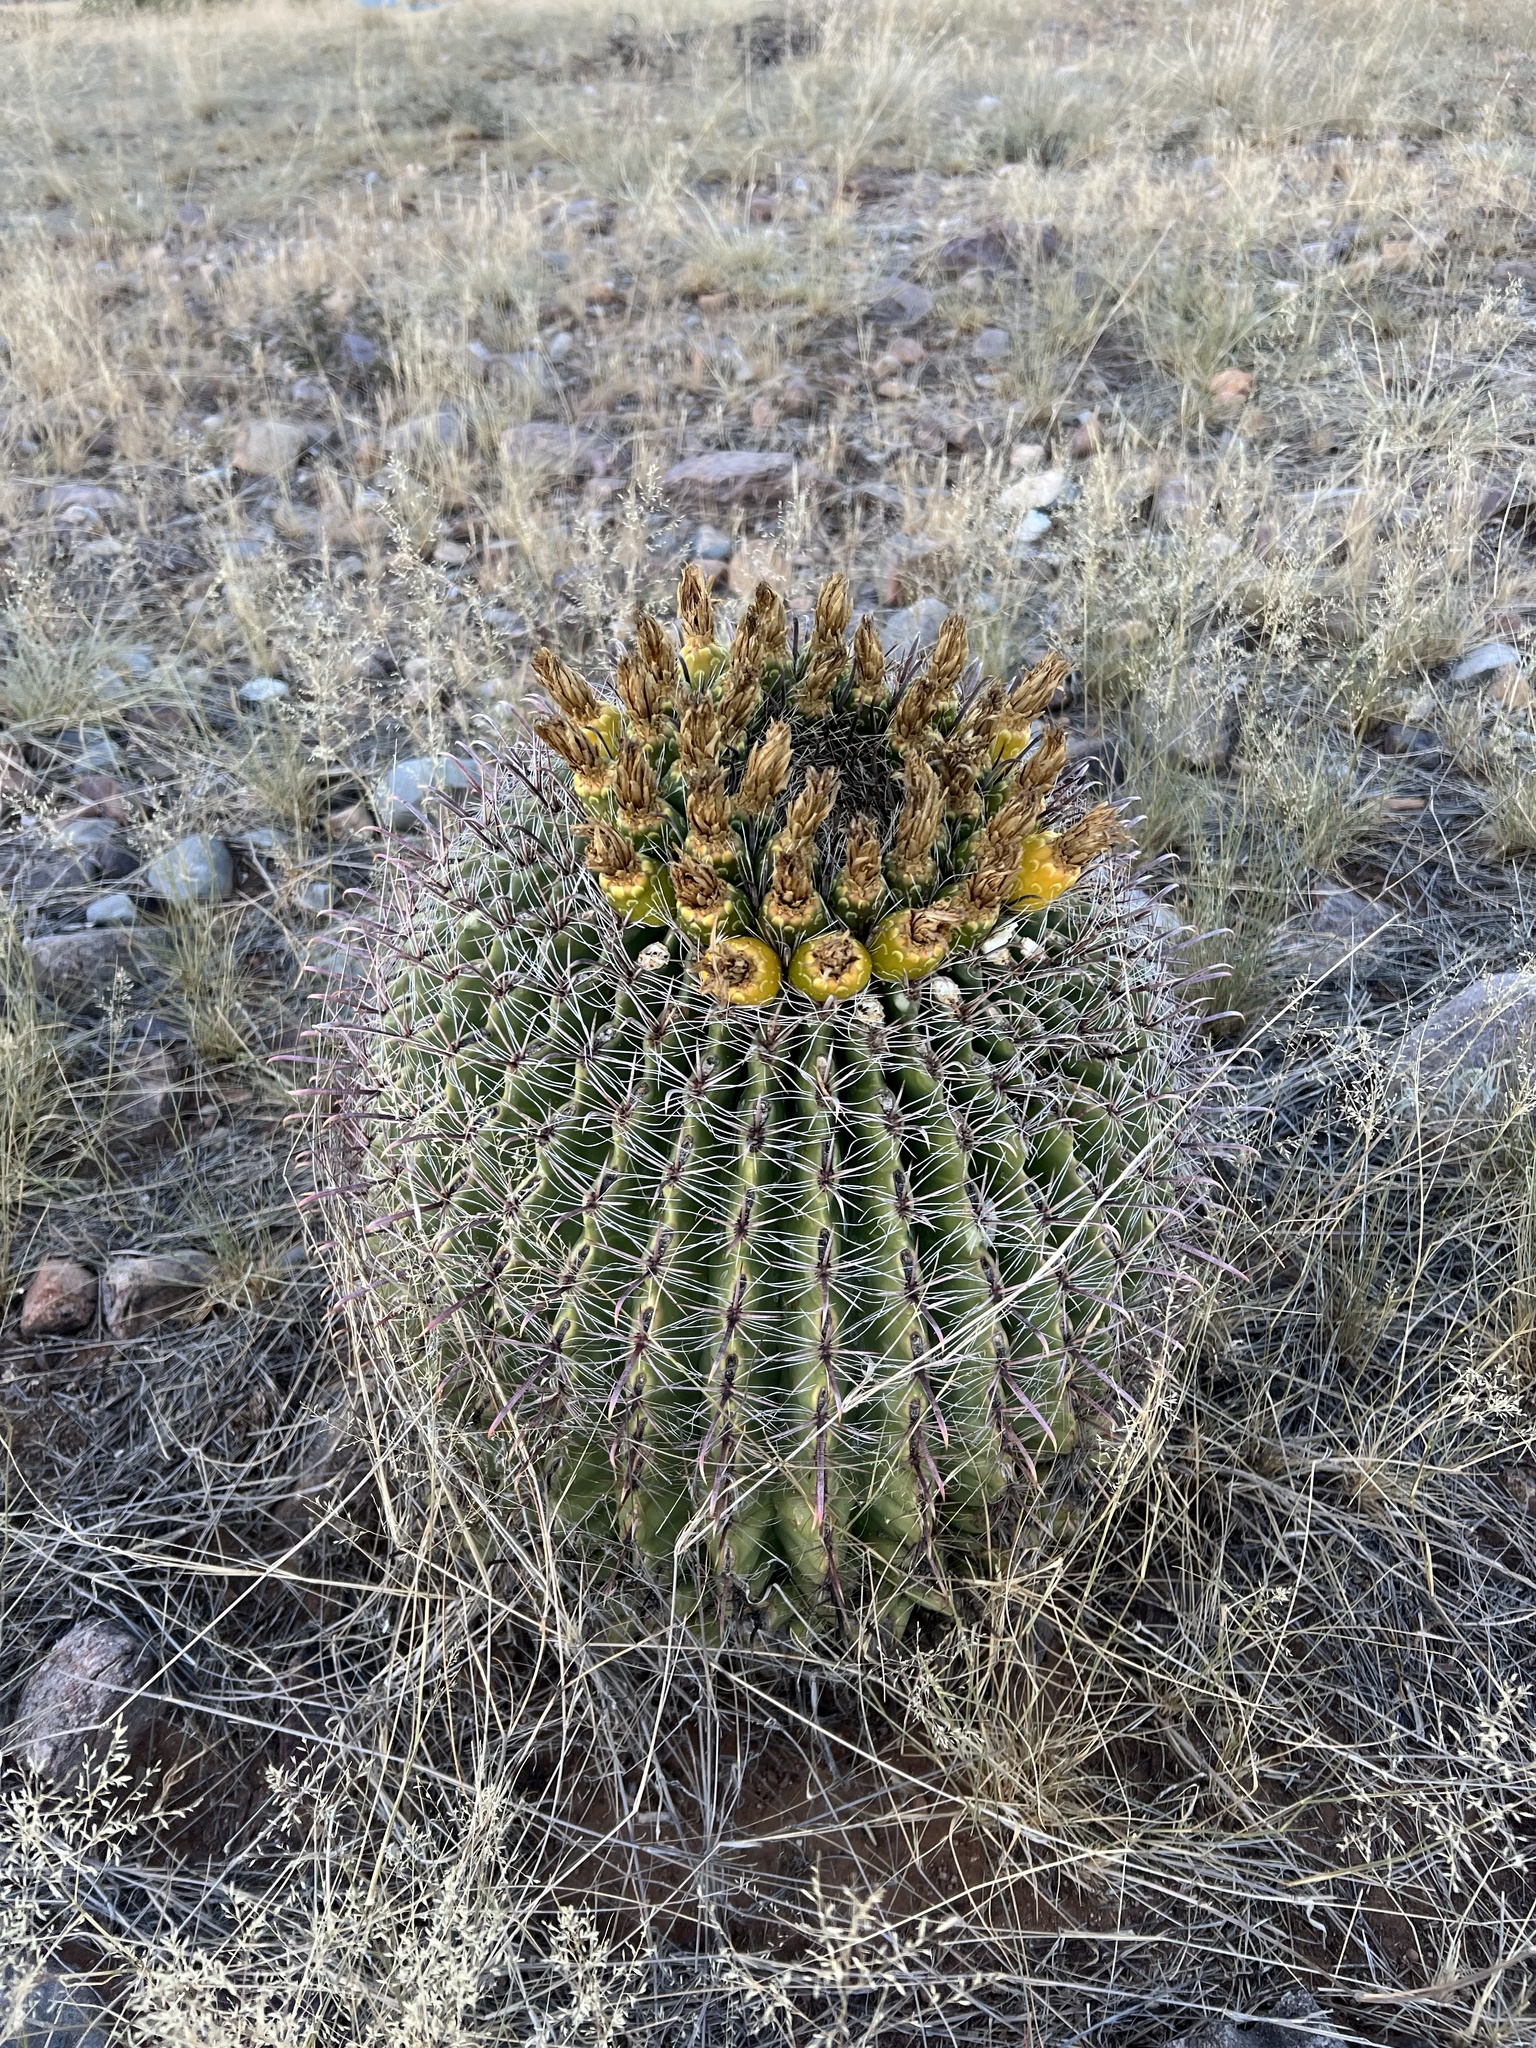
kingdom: Plantae
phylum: Tracheophyta
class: Magnoliopsida
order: Caryophyllales
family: Cactaceae
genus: Ferocactus
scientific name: Ferocactus wislizeni
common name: Candy barrel cactus
